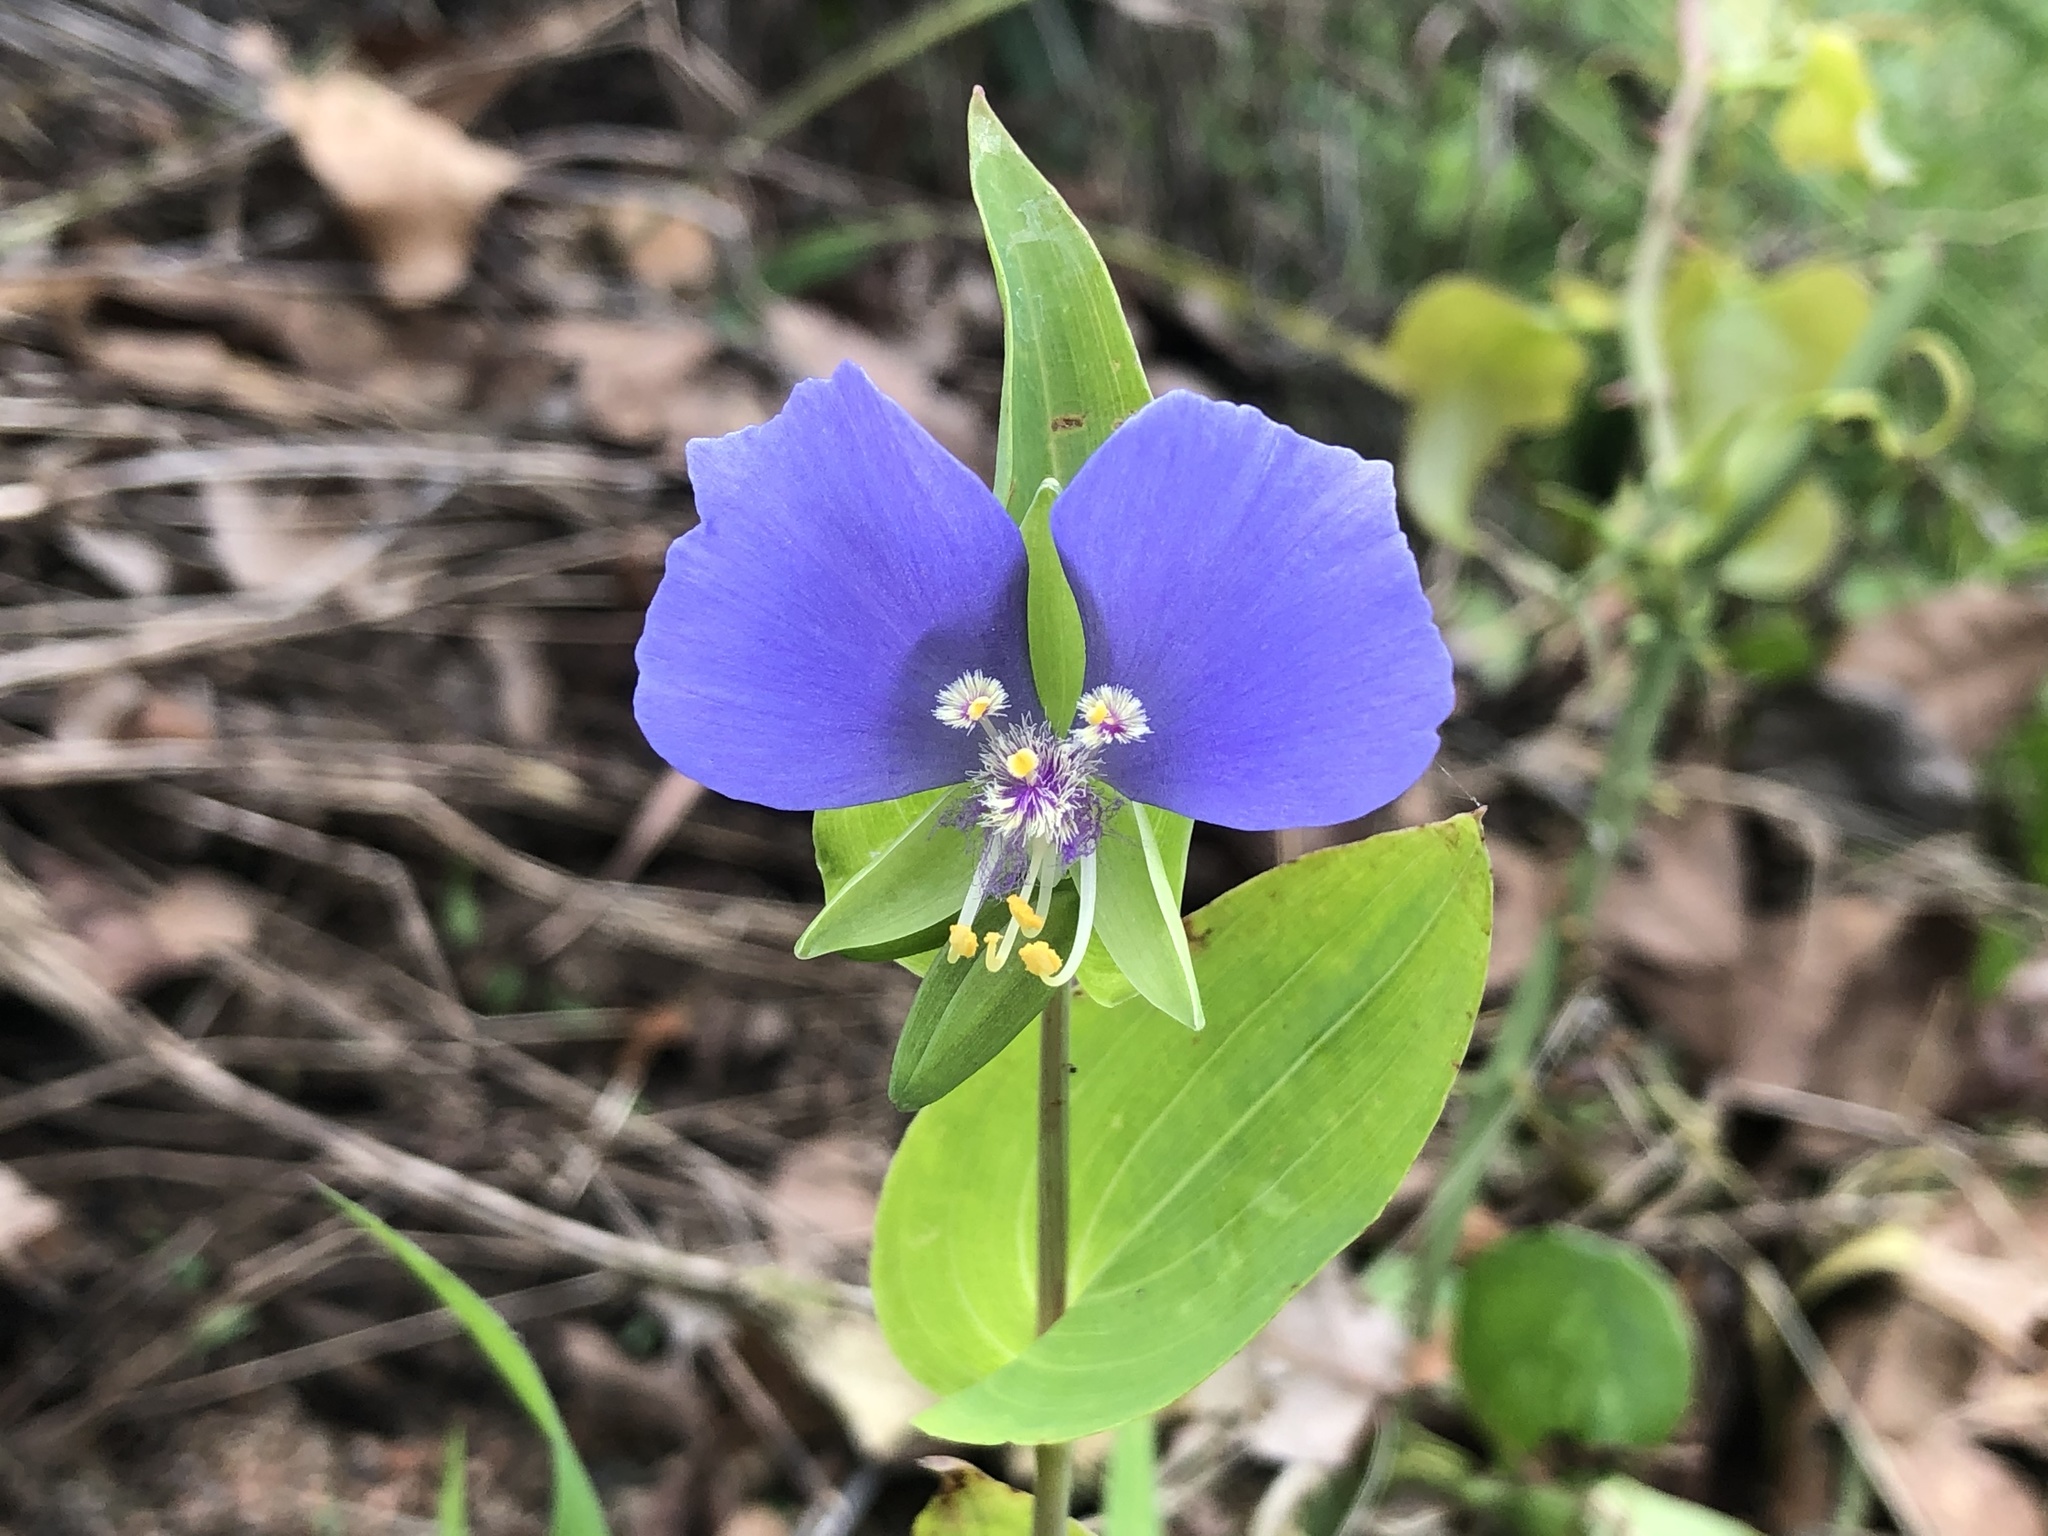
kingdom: Plantae
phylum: Tracheophyta
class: Liliopsida
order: Commelinales
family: Commelinaceae
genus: Tinantia
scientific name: Tinantia anomala
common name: False dayflower
